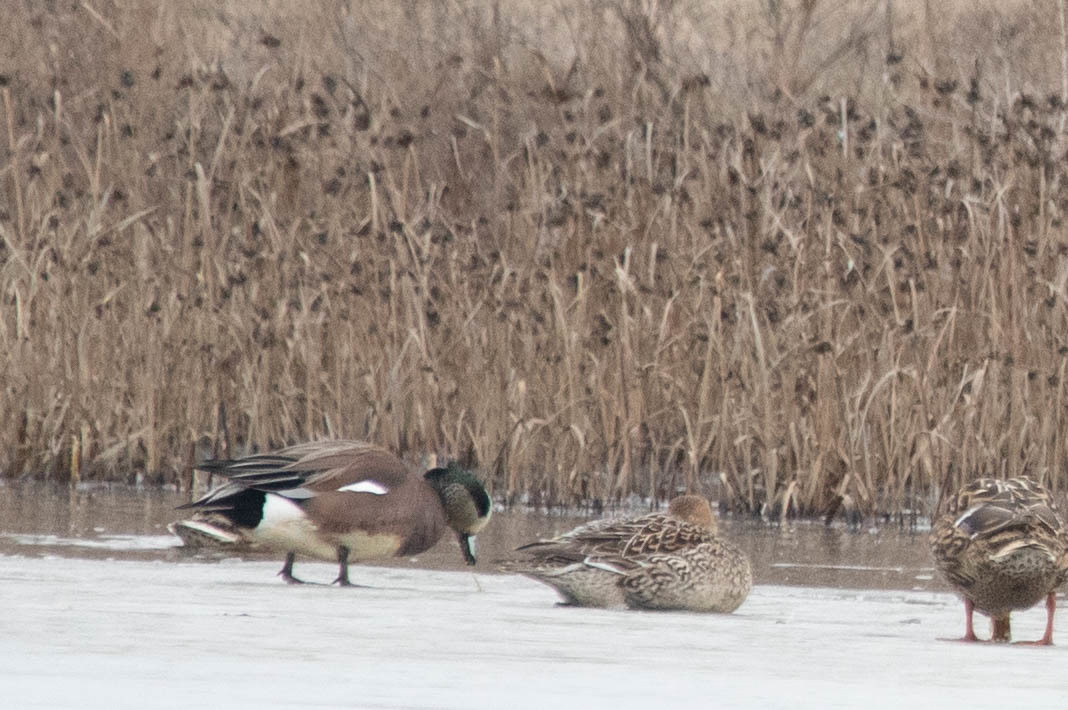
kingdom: Animalia
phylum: Chordata
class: Aves
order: Anseriformes
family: Anatidae
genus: Mareca
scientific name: Mareca americana
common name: American wigeon
